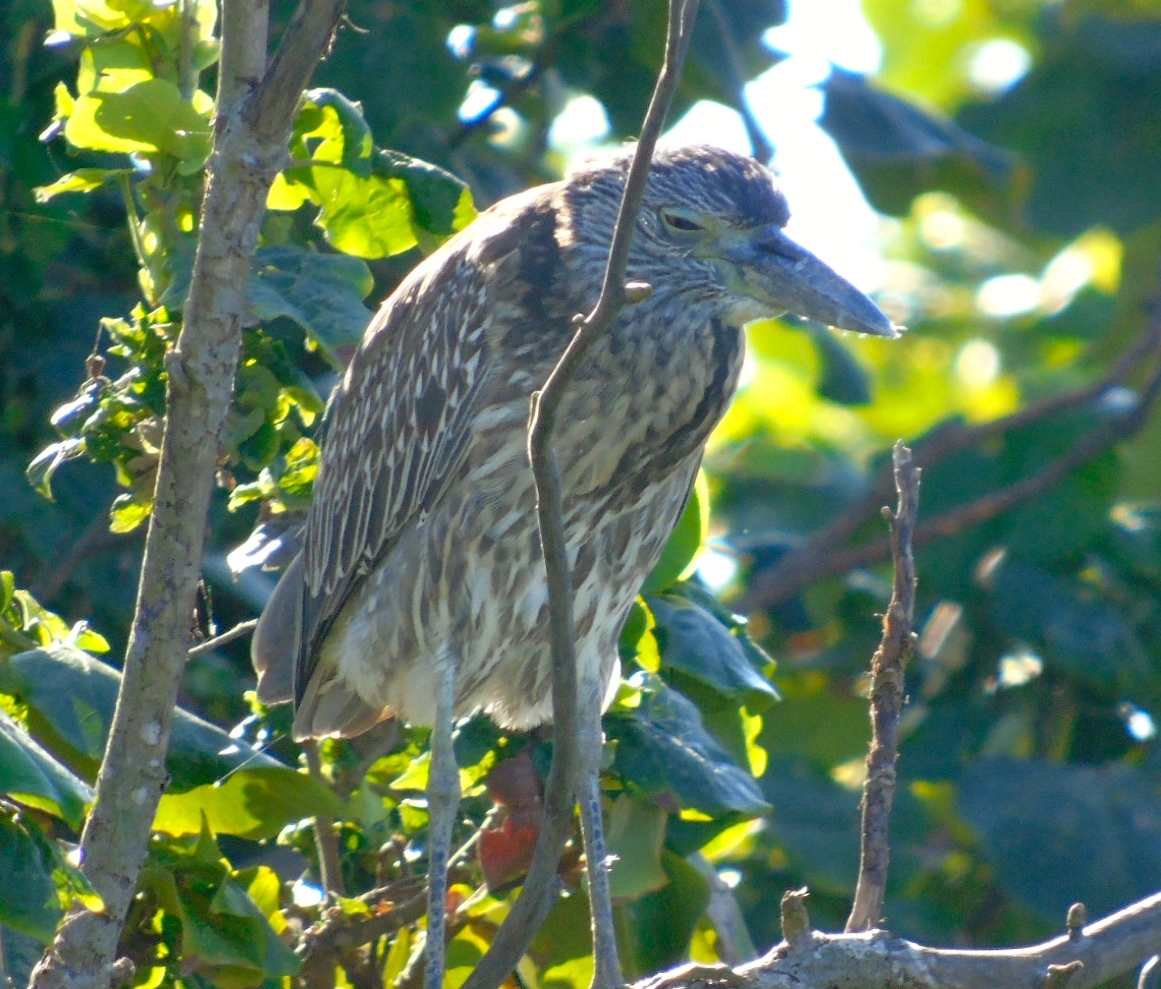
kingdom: Animalia
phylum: Chordata
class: Aves
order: Pelecaniformes
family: Ardeidae
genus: Nyctanassa
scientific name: Nyctanassa violacea
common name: Yellow-crowned night heron
